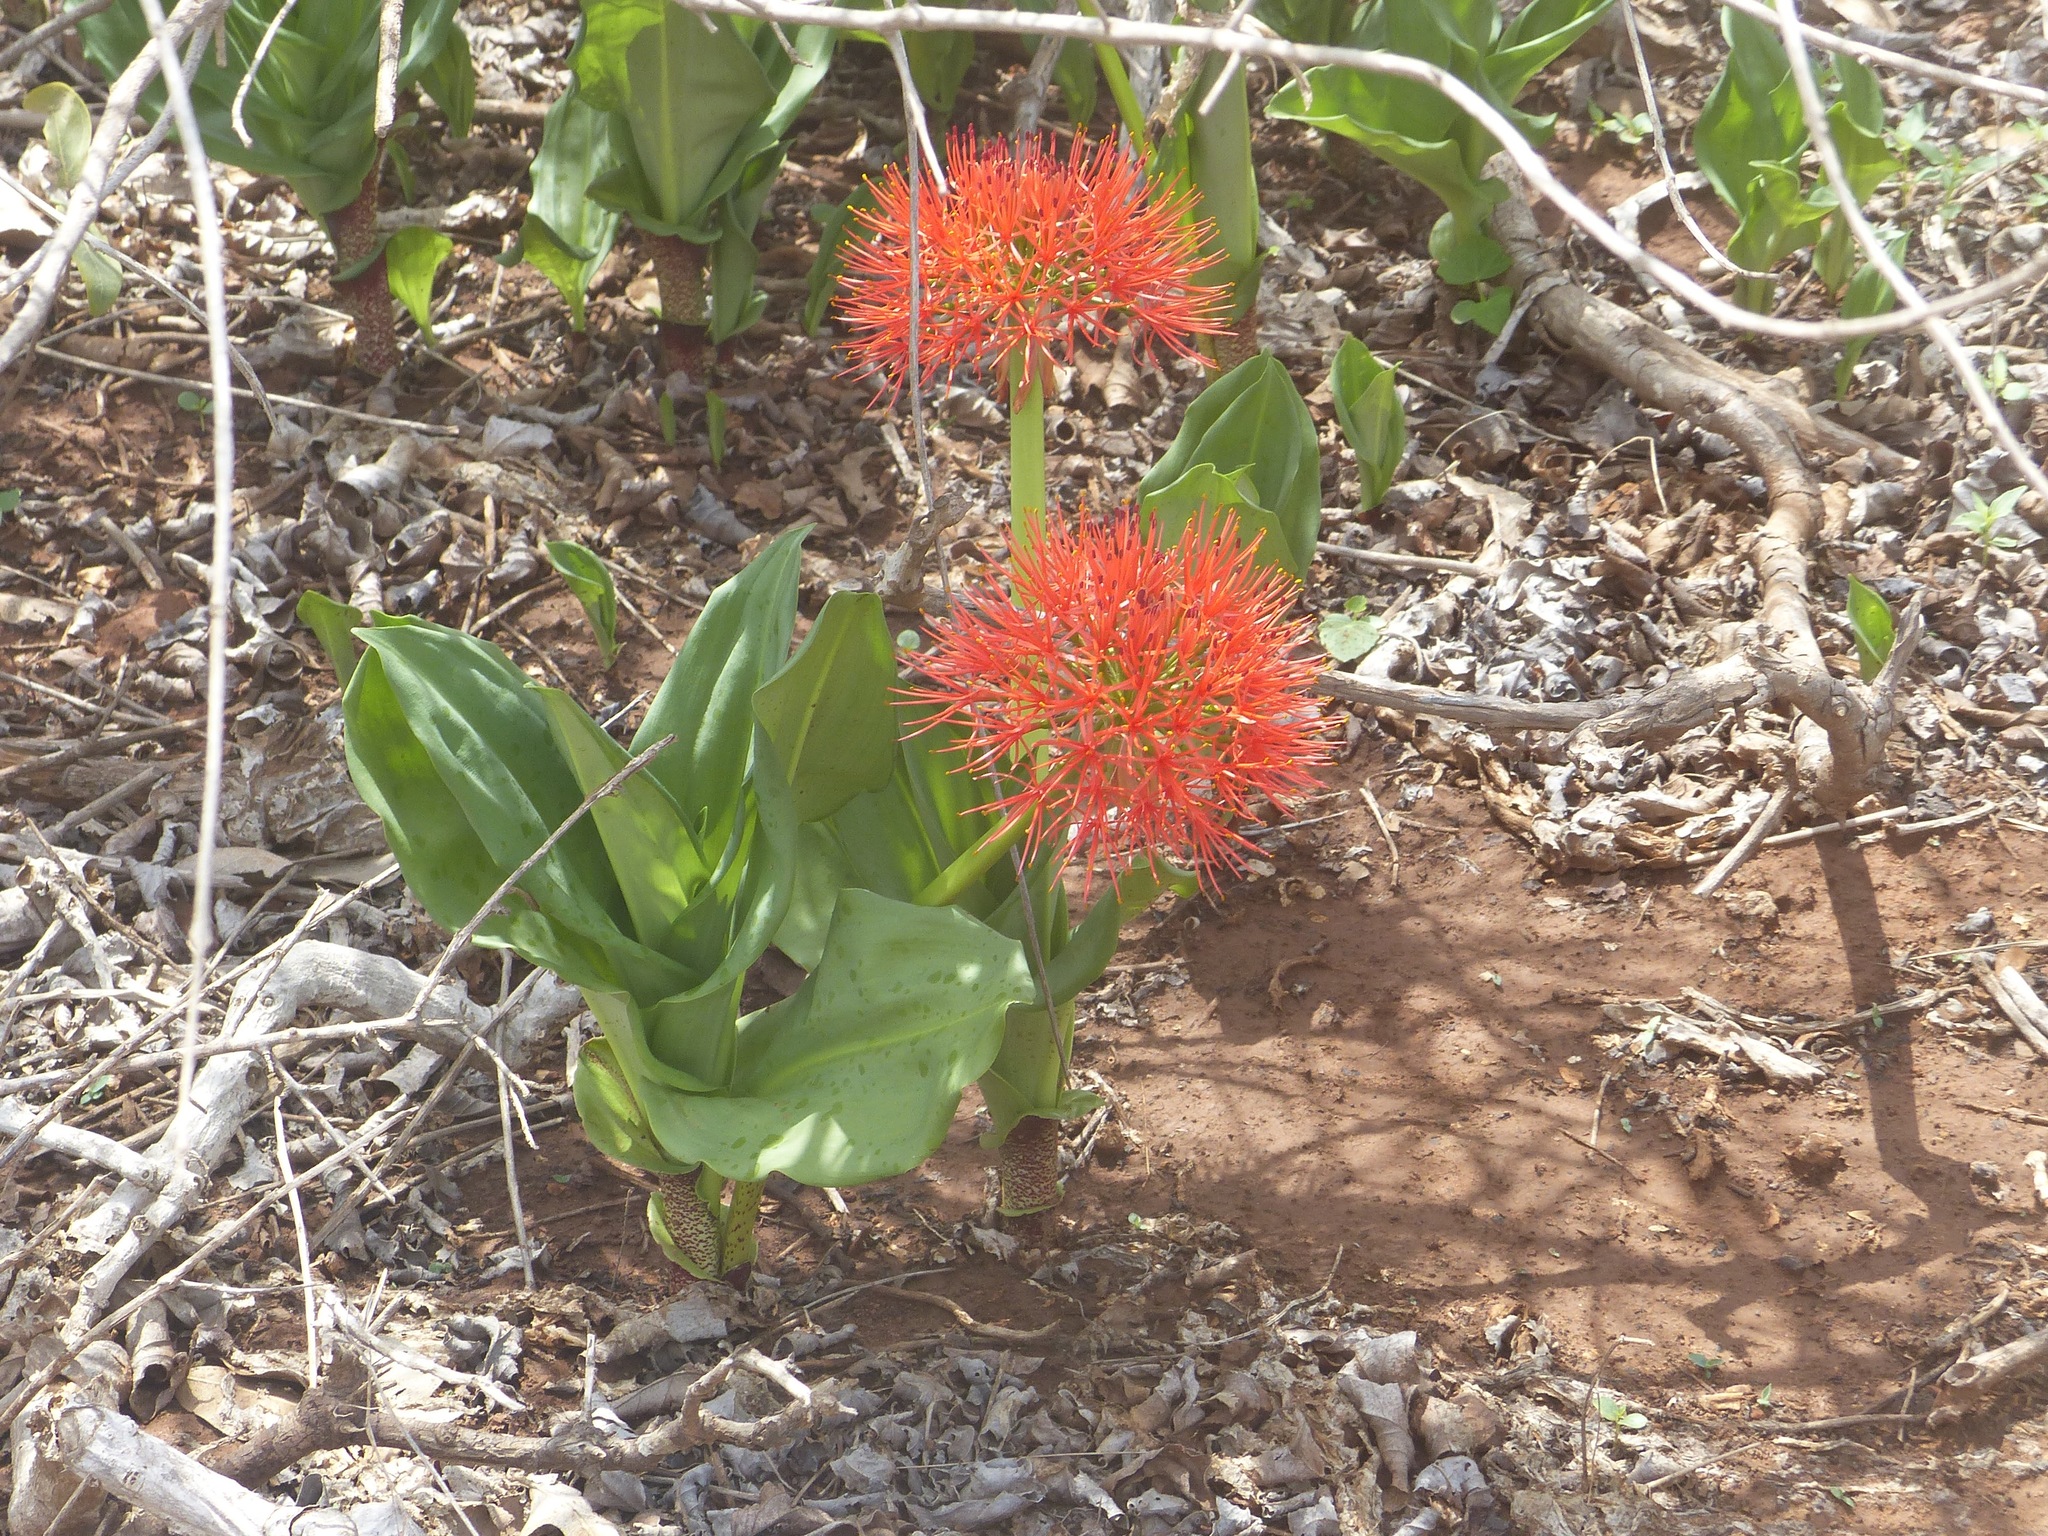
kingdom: Plantae
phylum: Tracheophyta
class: Liliopsida
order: Asparagales
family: Amaryllidaceae
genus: Scadoxus
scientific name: Scadoxus multiflorus
